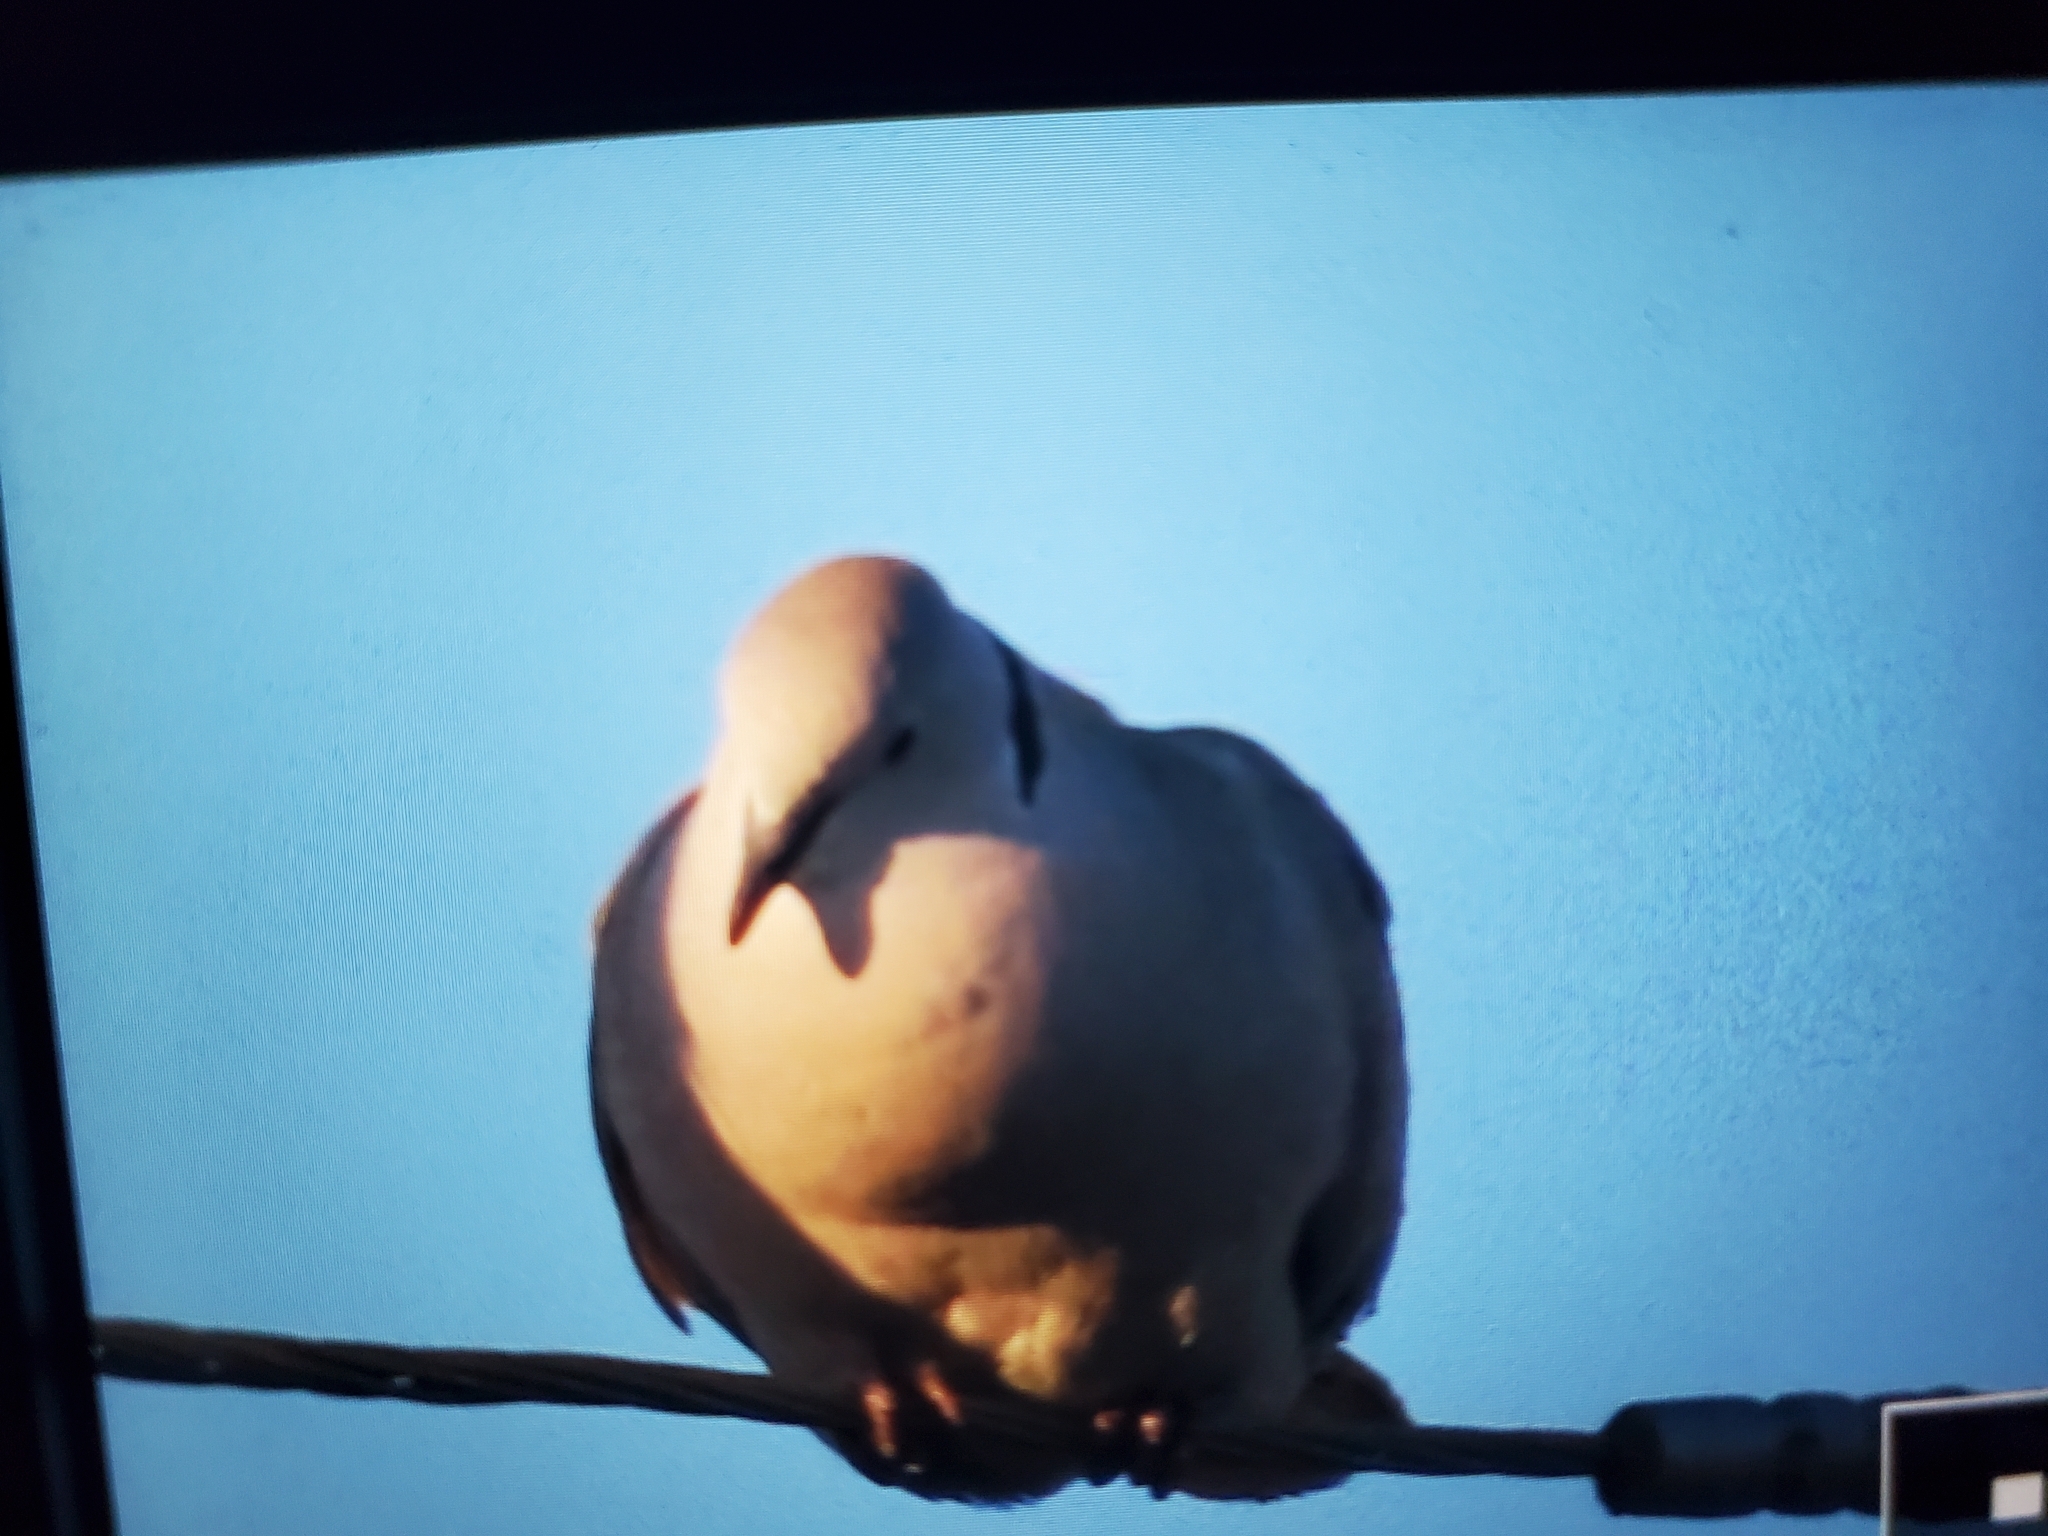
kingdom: Animalia
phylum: Chordata
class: Aves
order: Columbiformes
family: Columbidae
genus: Streptopelia
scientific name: Streptopelia decaocto
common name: Eurasian collared dove
